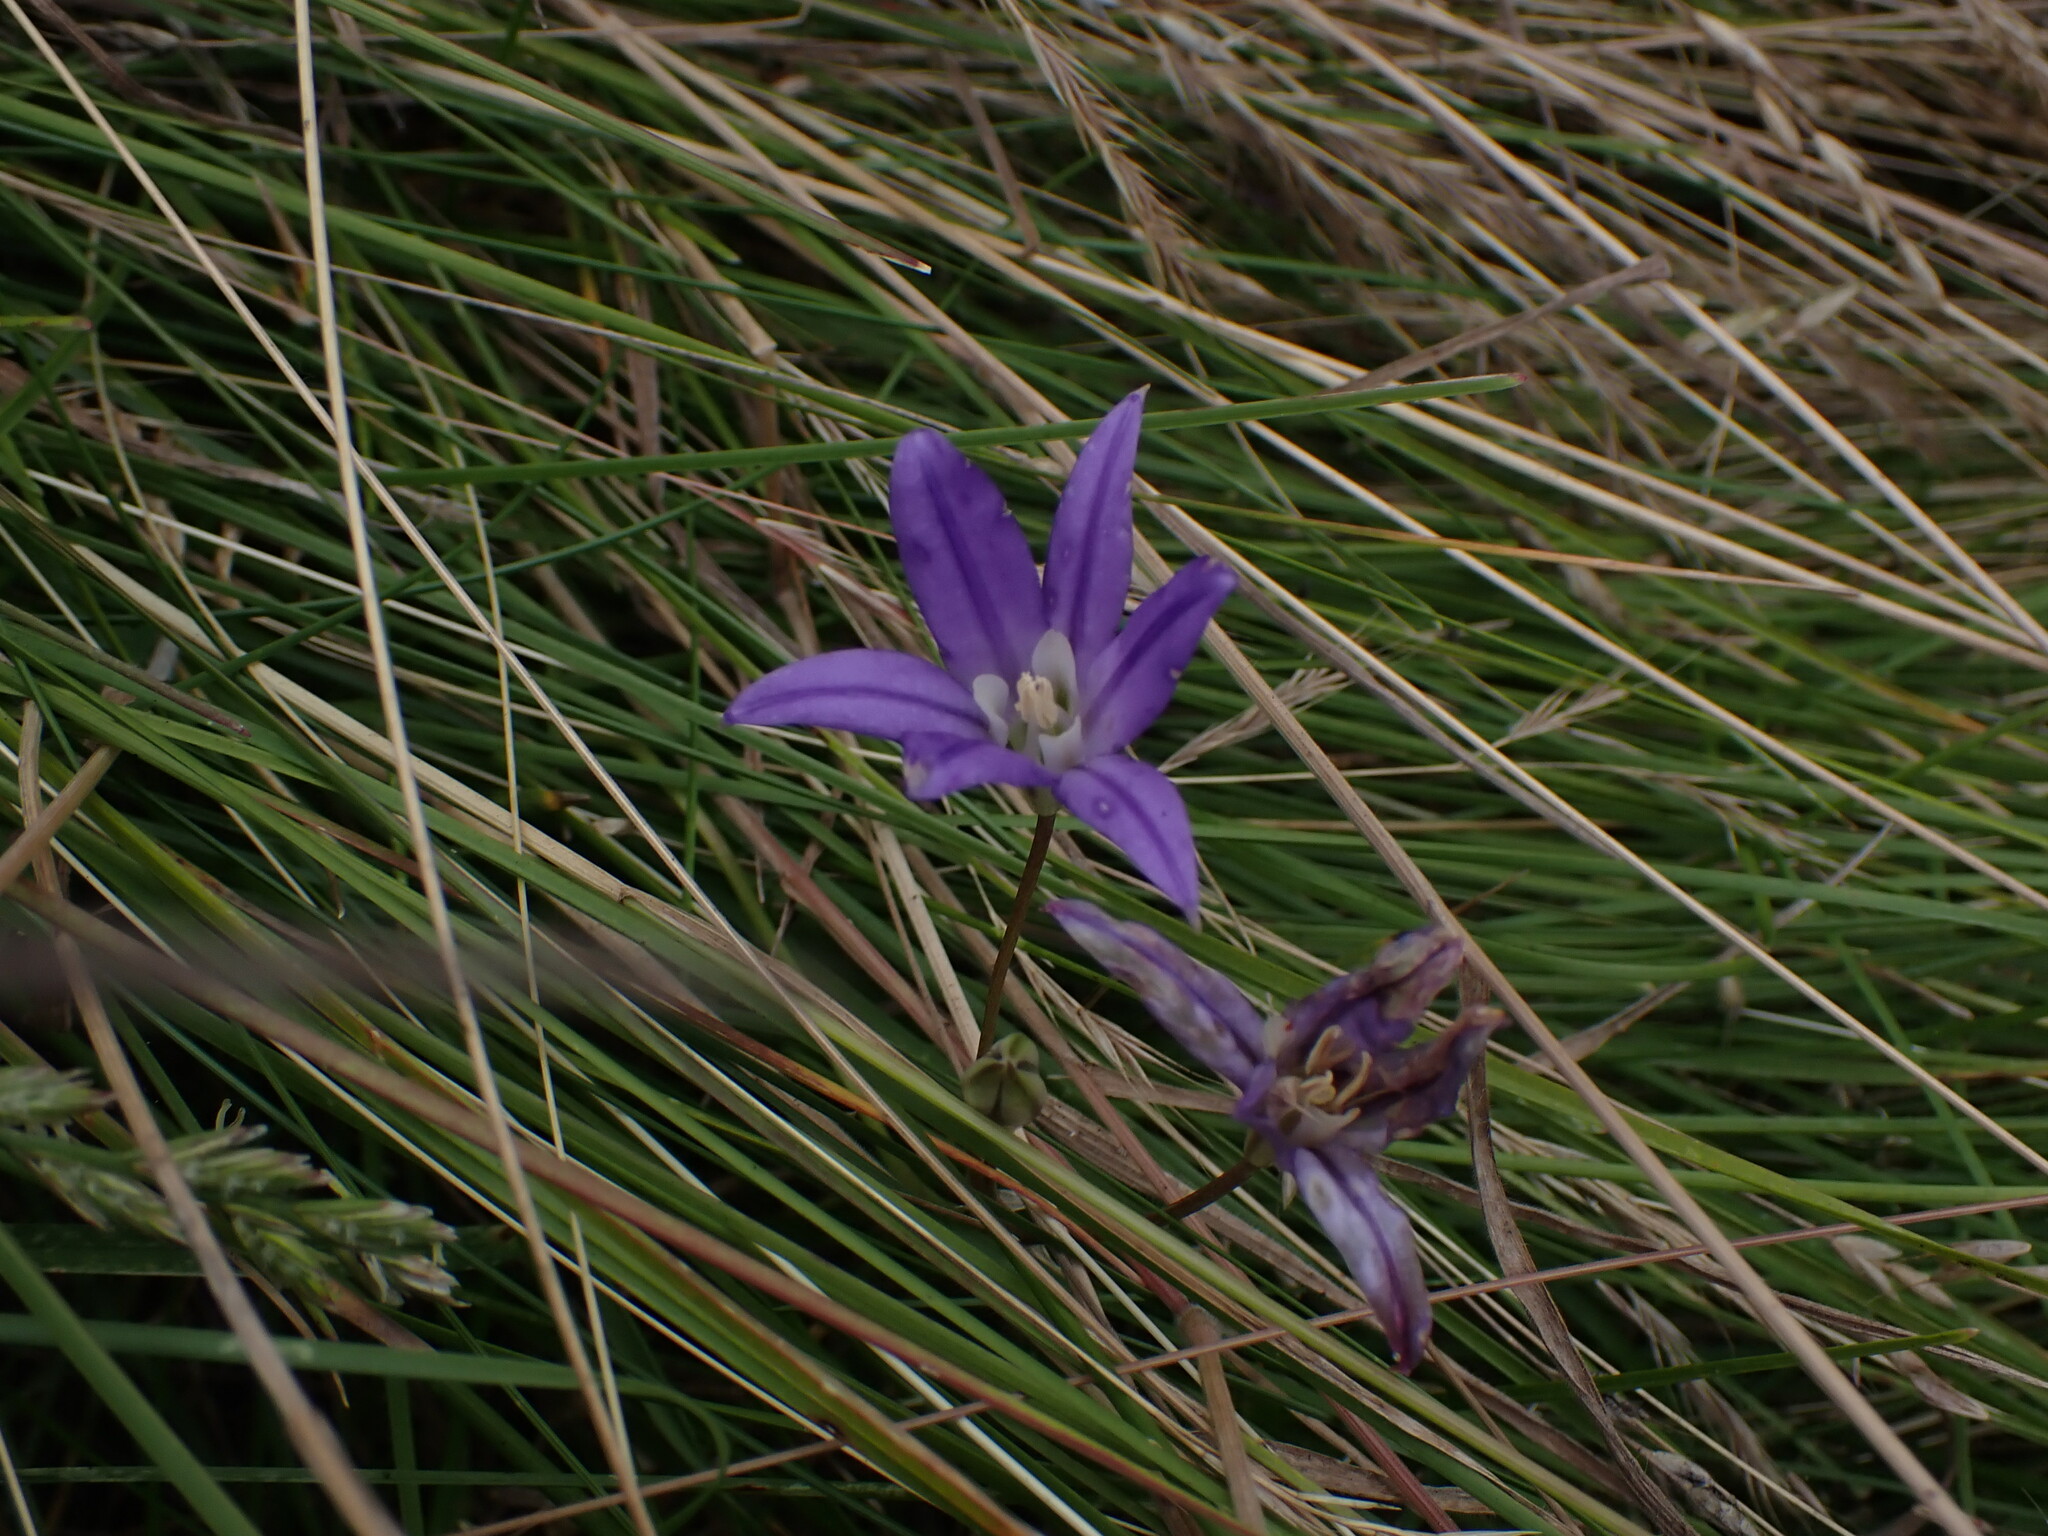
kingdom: Plantae
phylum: Tracheophyta
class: Liliopsida
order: Asparagales
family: Asparagaceae
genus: Brodiaea
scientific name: Brodiaea coronaria
